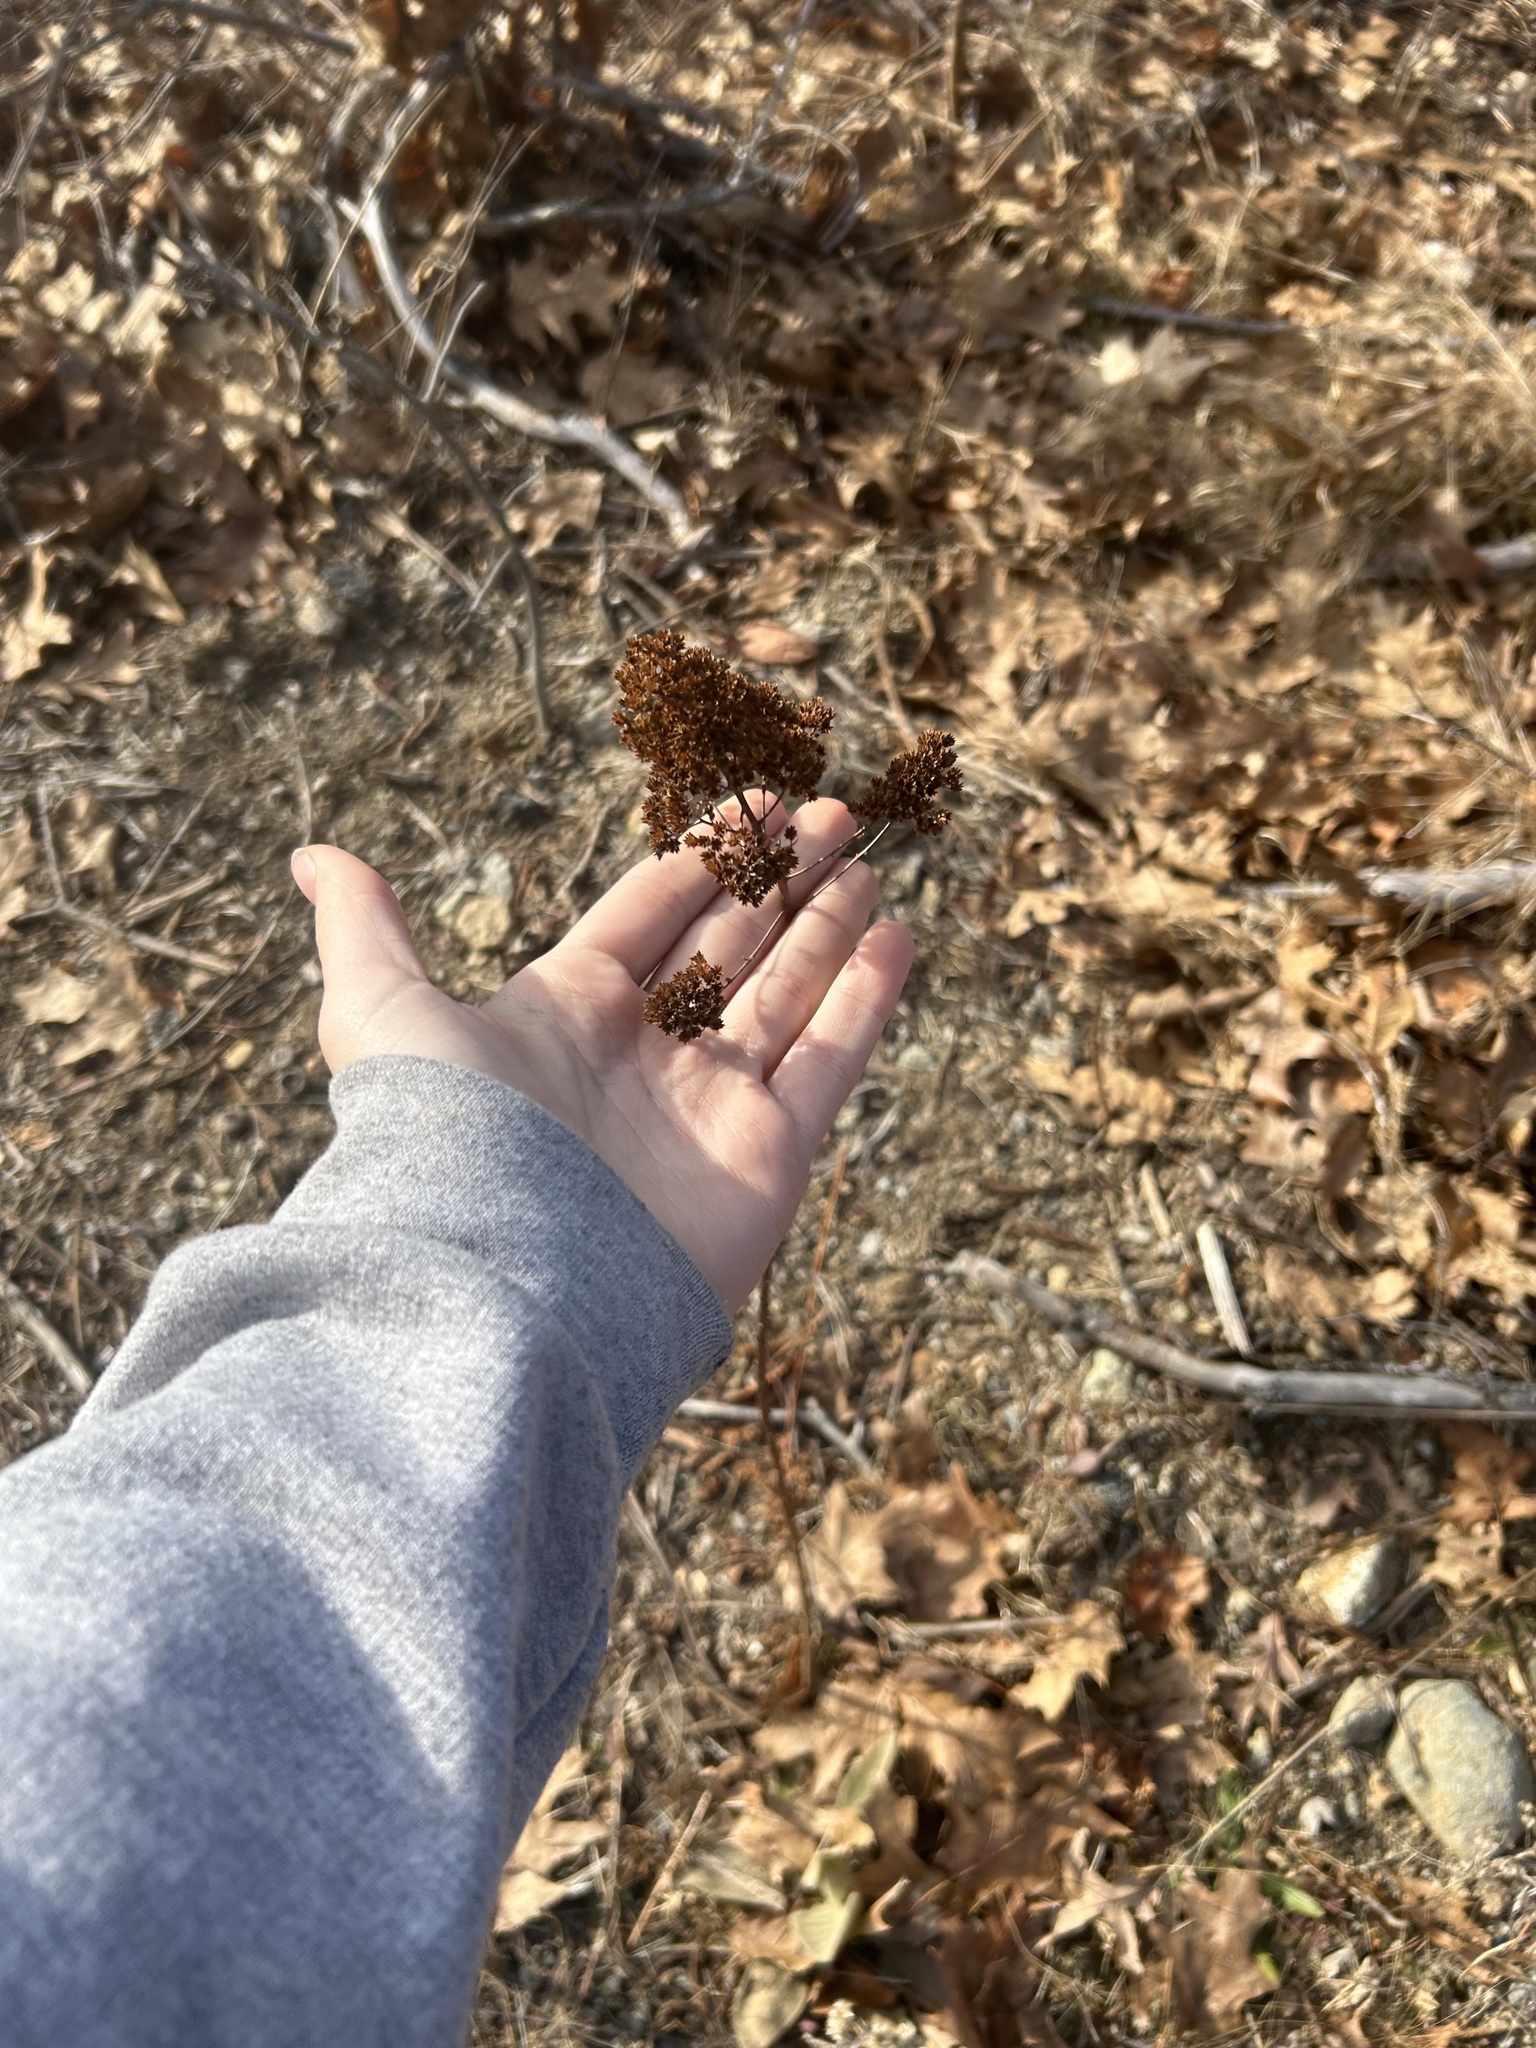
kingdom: Plantae
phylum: Tracheophyta
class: Magnoliopsida
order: Rosales
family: Rosaceae
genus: Spiraea
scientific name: Spiraea alba
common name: Pale bridewort
